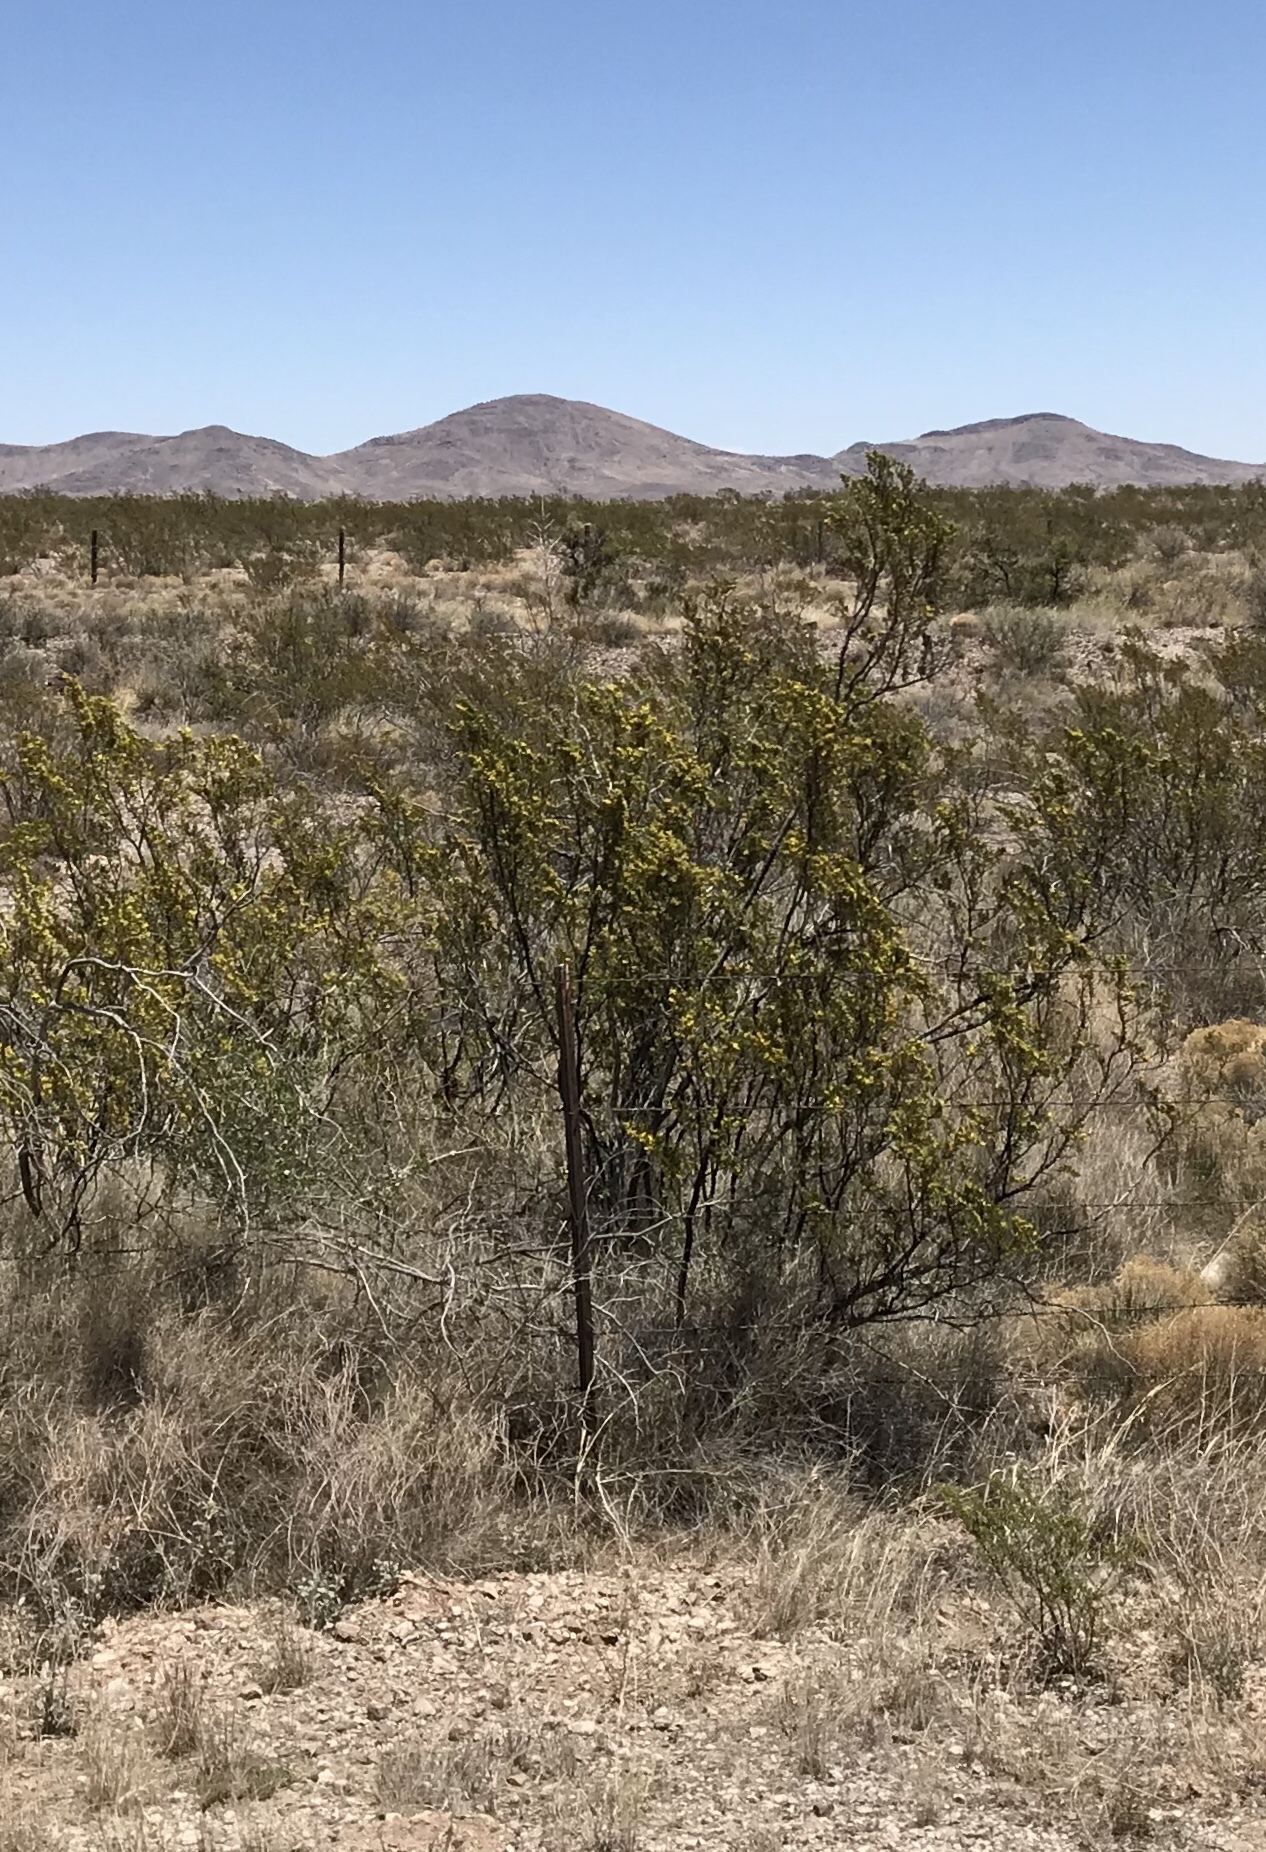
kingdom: Plantae
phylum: Tracheophyta
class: Magnoliopsida
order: Zygophyllales
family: Zygophyllaceae
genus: Larrea
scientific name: Larrea tridentata
